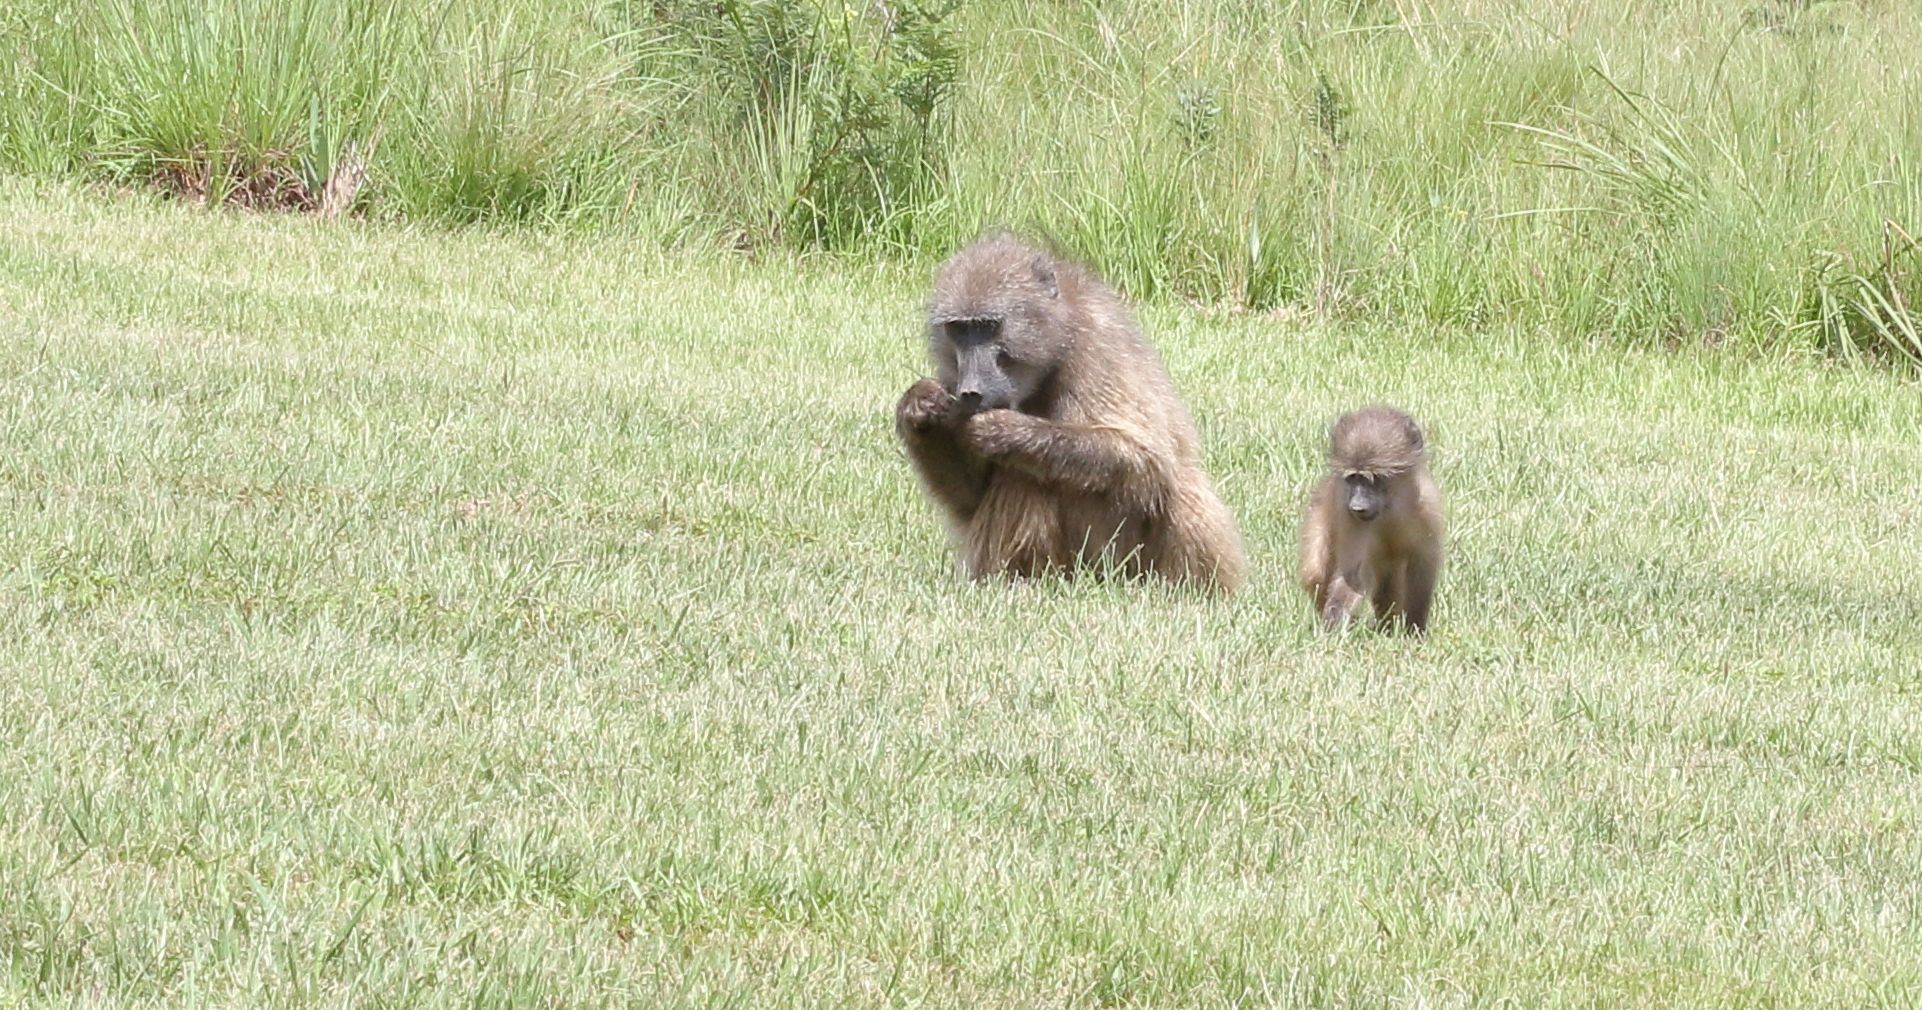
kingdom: Animalia
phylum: Chordata
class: Mammalia
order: Primates
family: Cercopithecidae
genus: Papio
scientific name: Papio ursinus
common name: Chacma baboon
